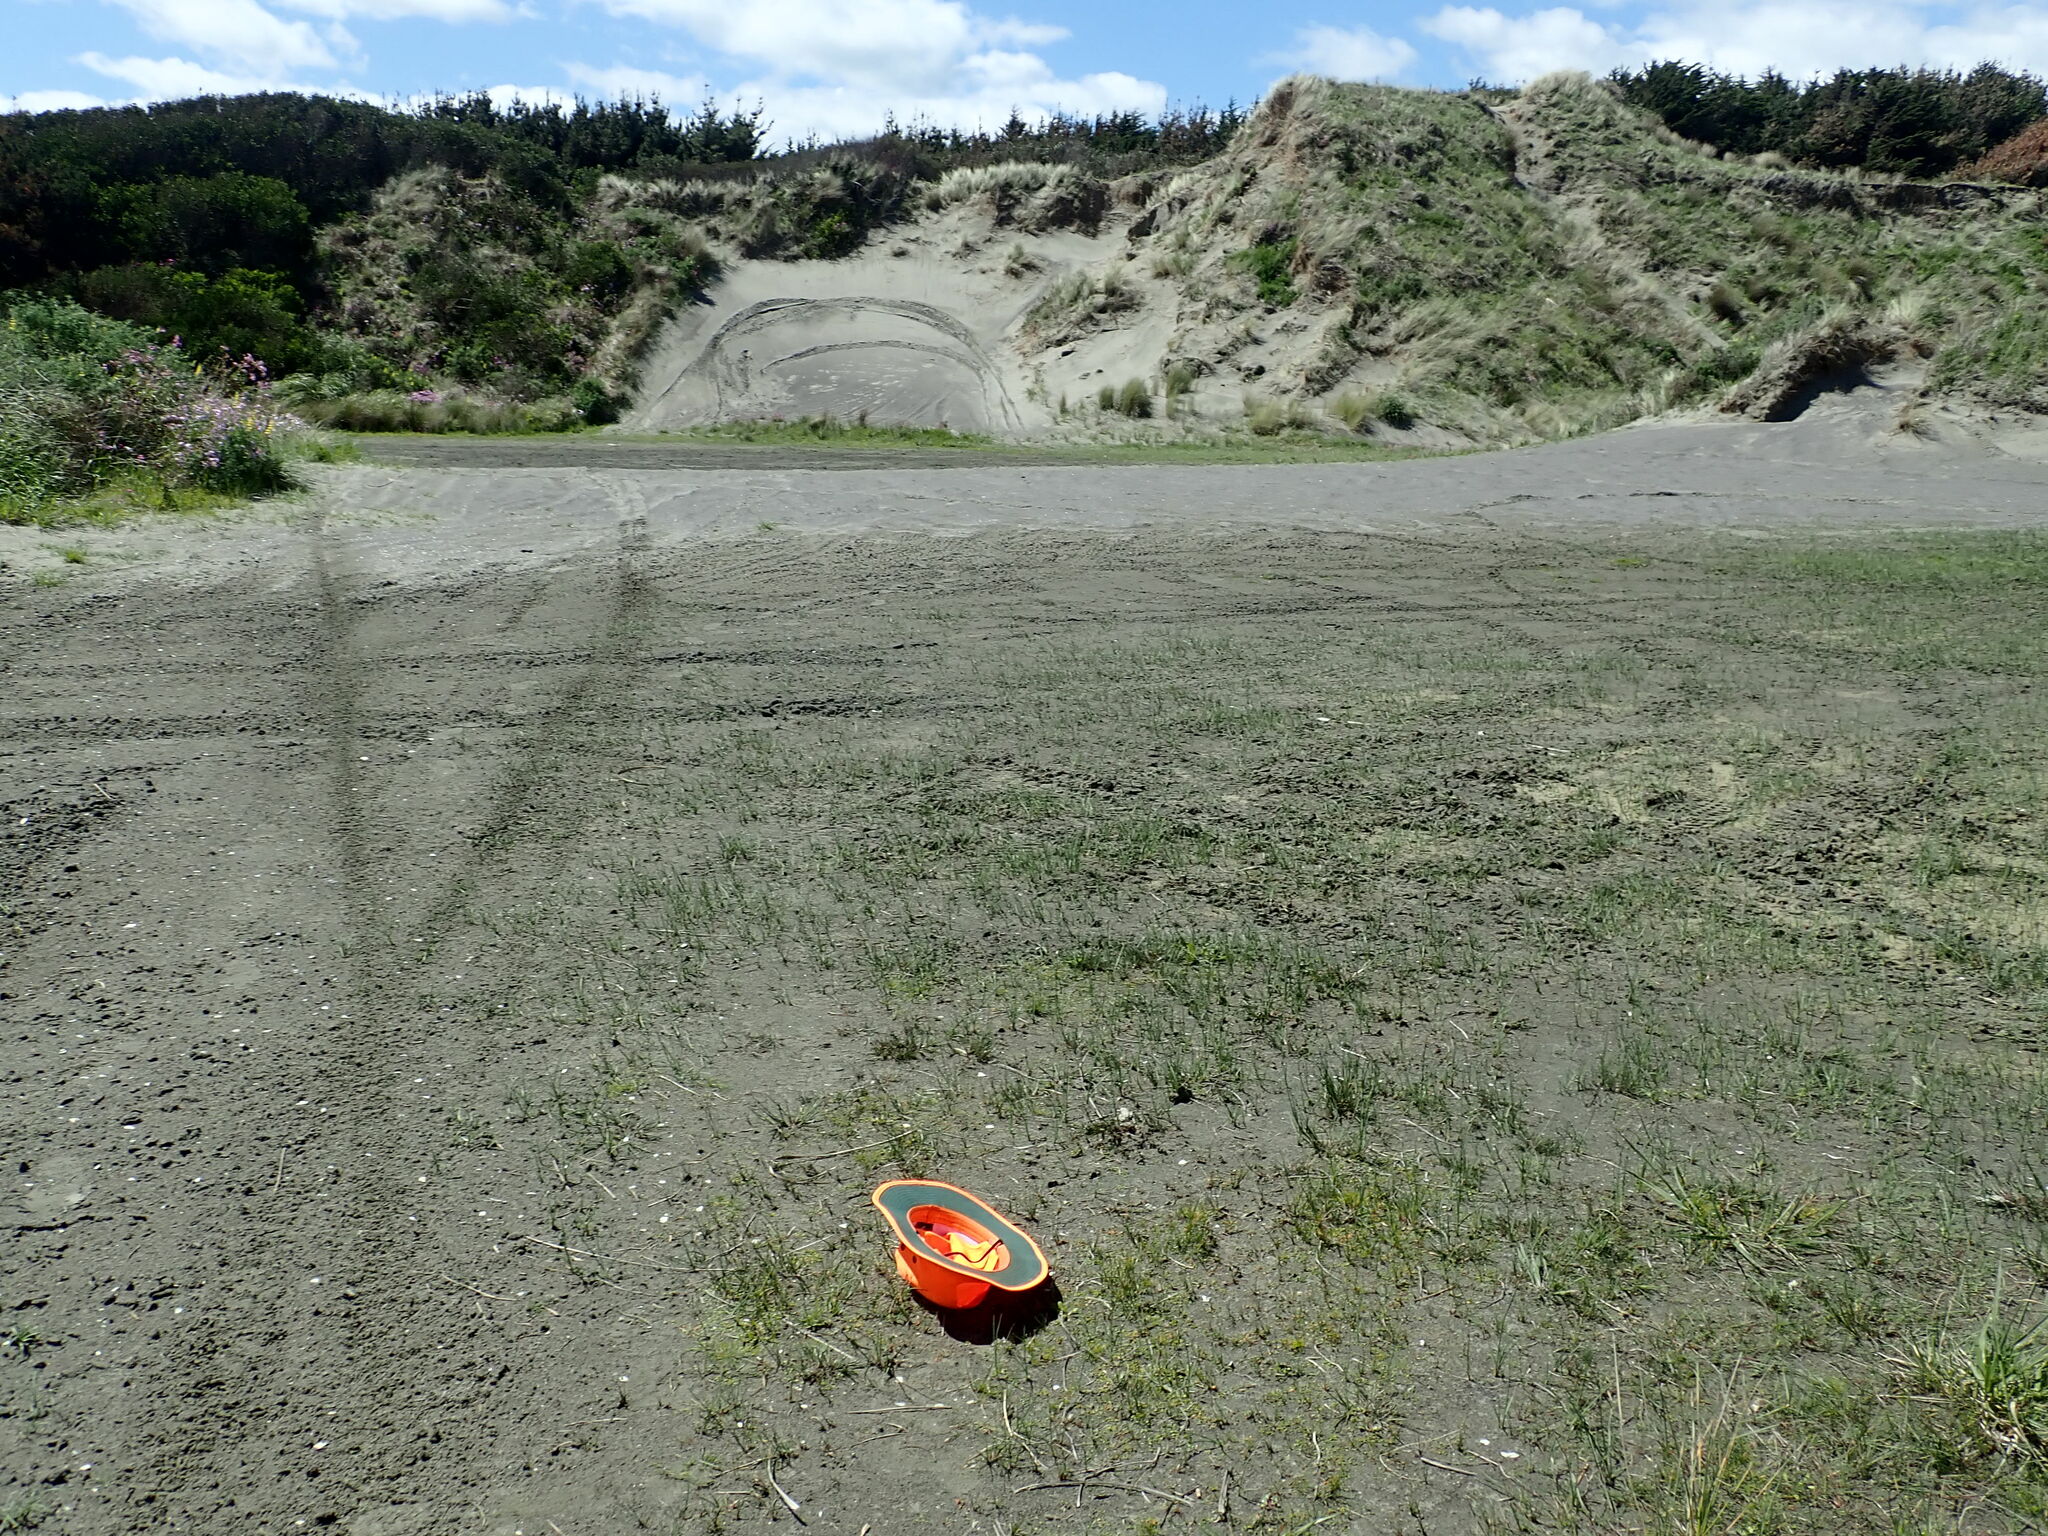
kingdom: Plantae
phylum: Tracheophyta
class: Magnoliopsida
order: Apiales
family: Apiaceae
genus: Lilaeopsis
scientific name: Lilaeopsis novae-zelandiae
